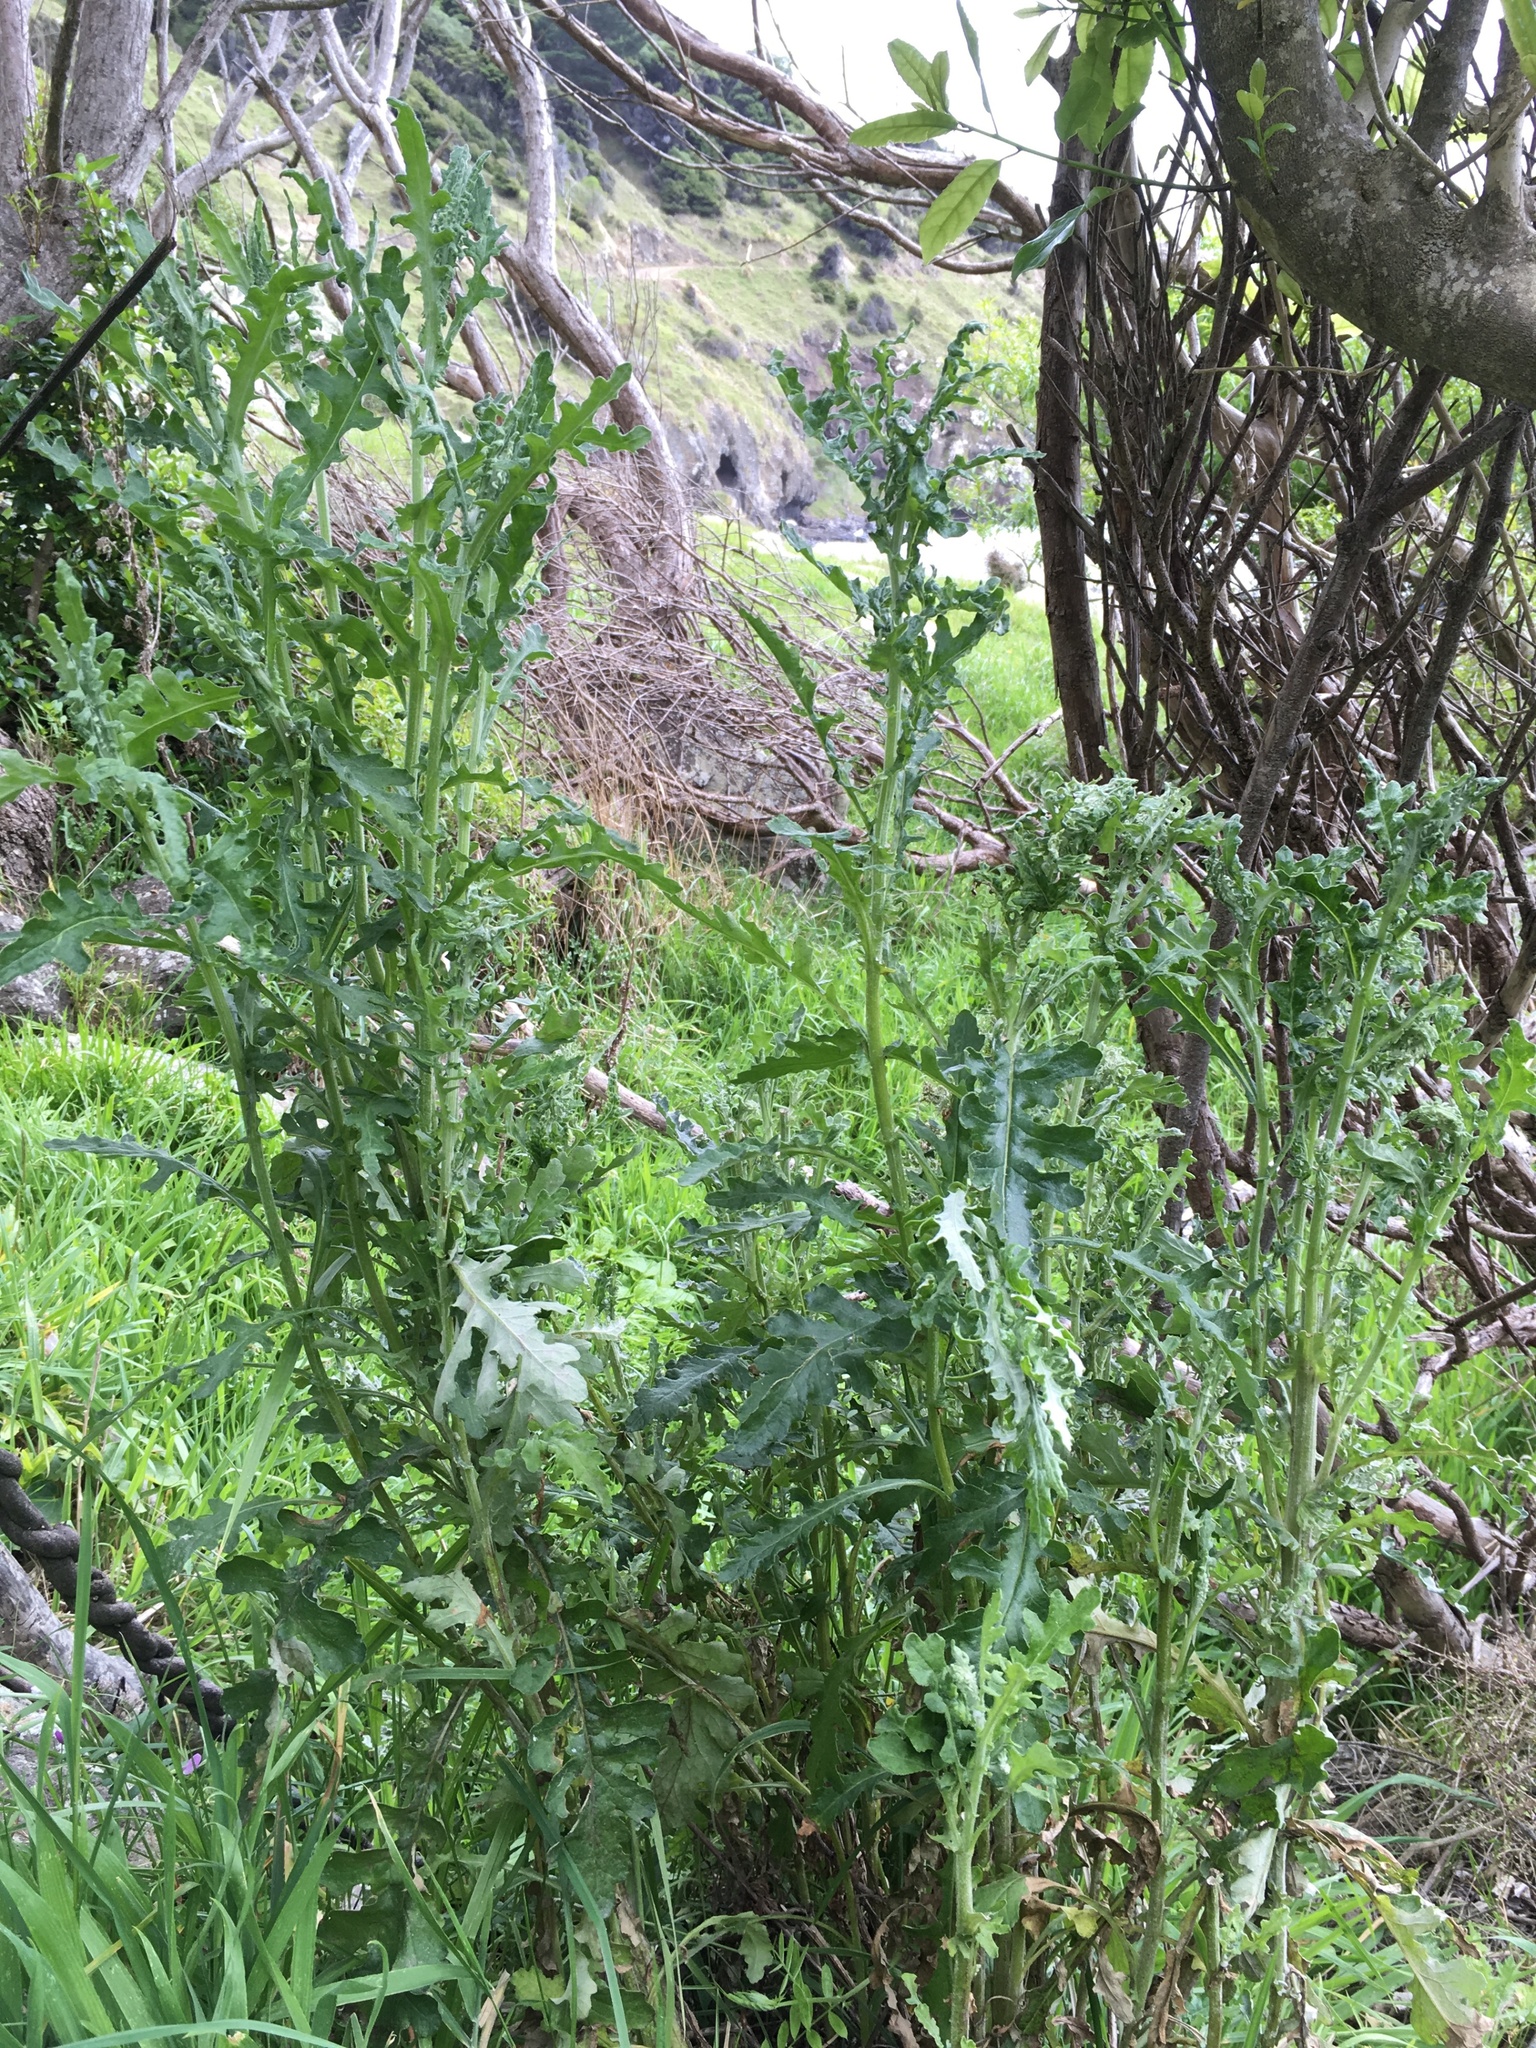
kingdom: Plantae
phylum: Tracheophyta
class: Magnoliopsida
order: Asterales
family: Asteraceae
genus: Senecio
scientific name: Senecio glomeratus
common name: Cutleaf burnweed
